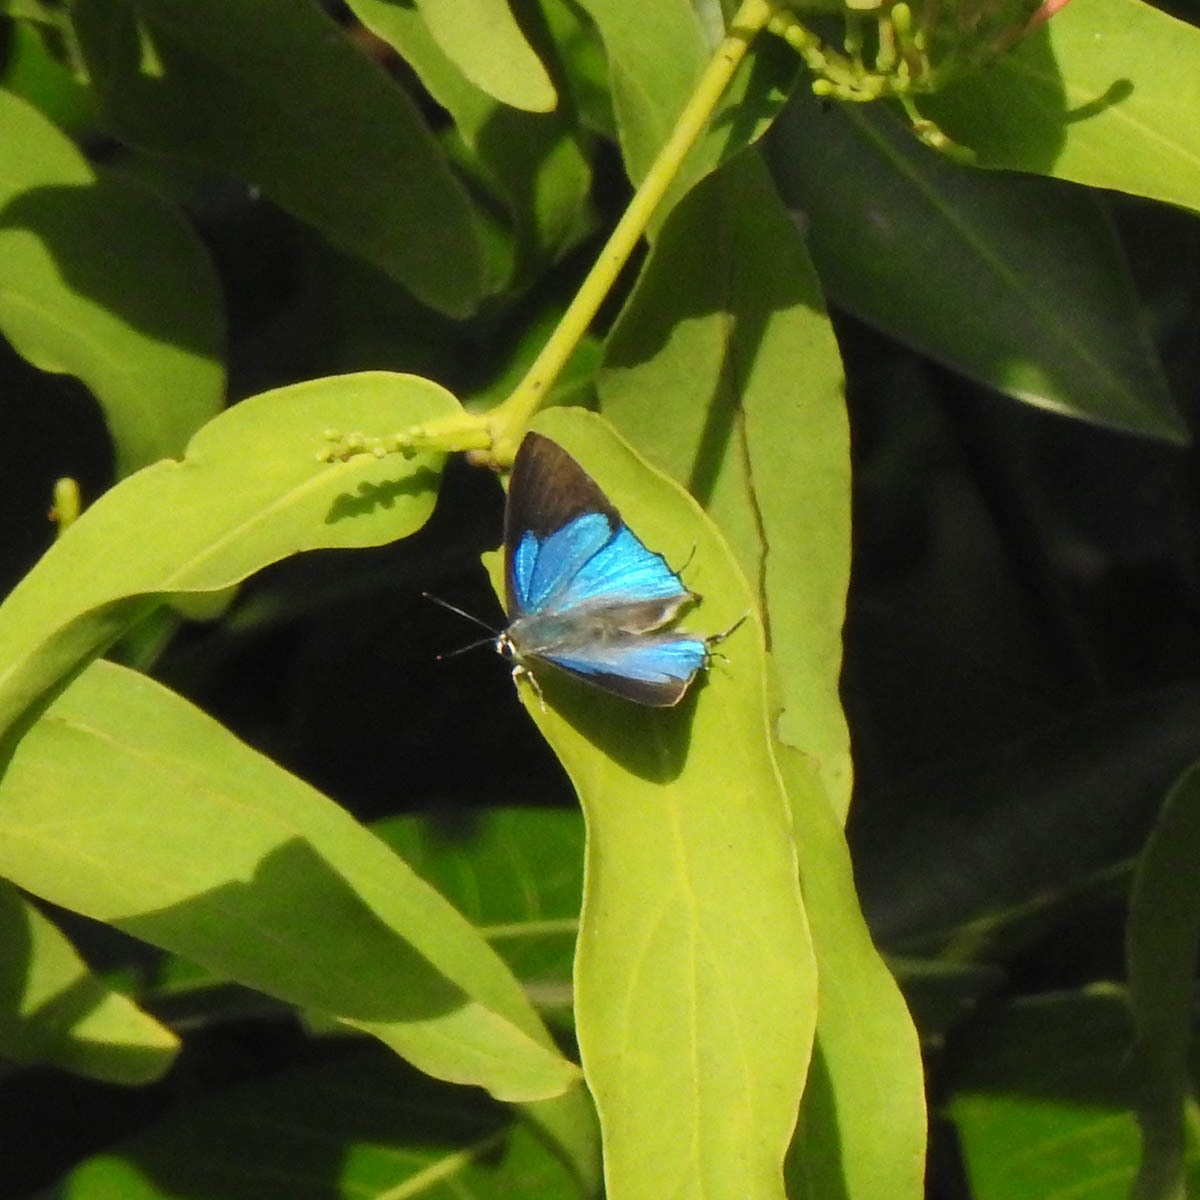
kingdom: Animalia
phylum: Arthropoda
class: Insecta
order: Lepidoptera
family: Lycaenidae
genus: Tajuria
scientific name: Tajuria cippus
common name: Peacock royal
